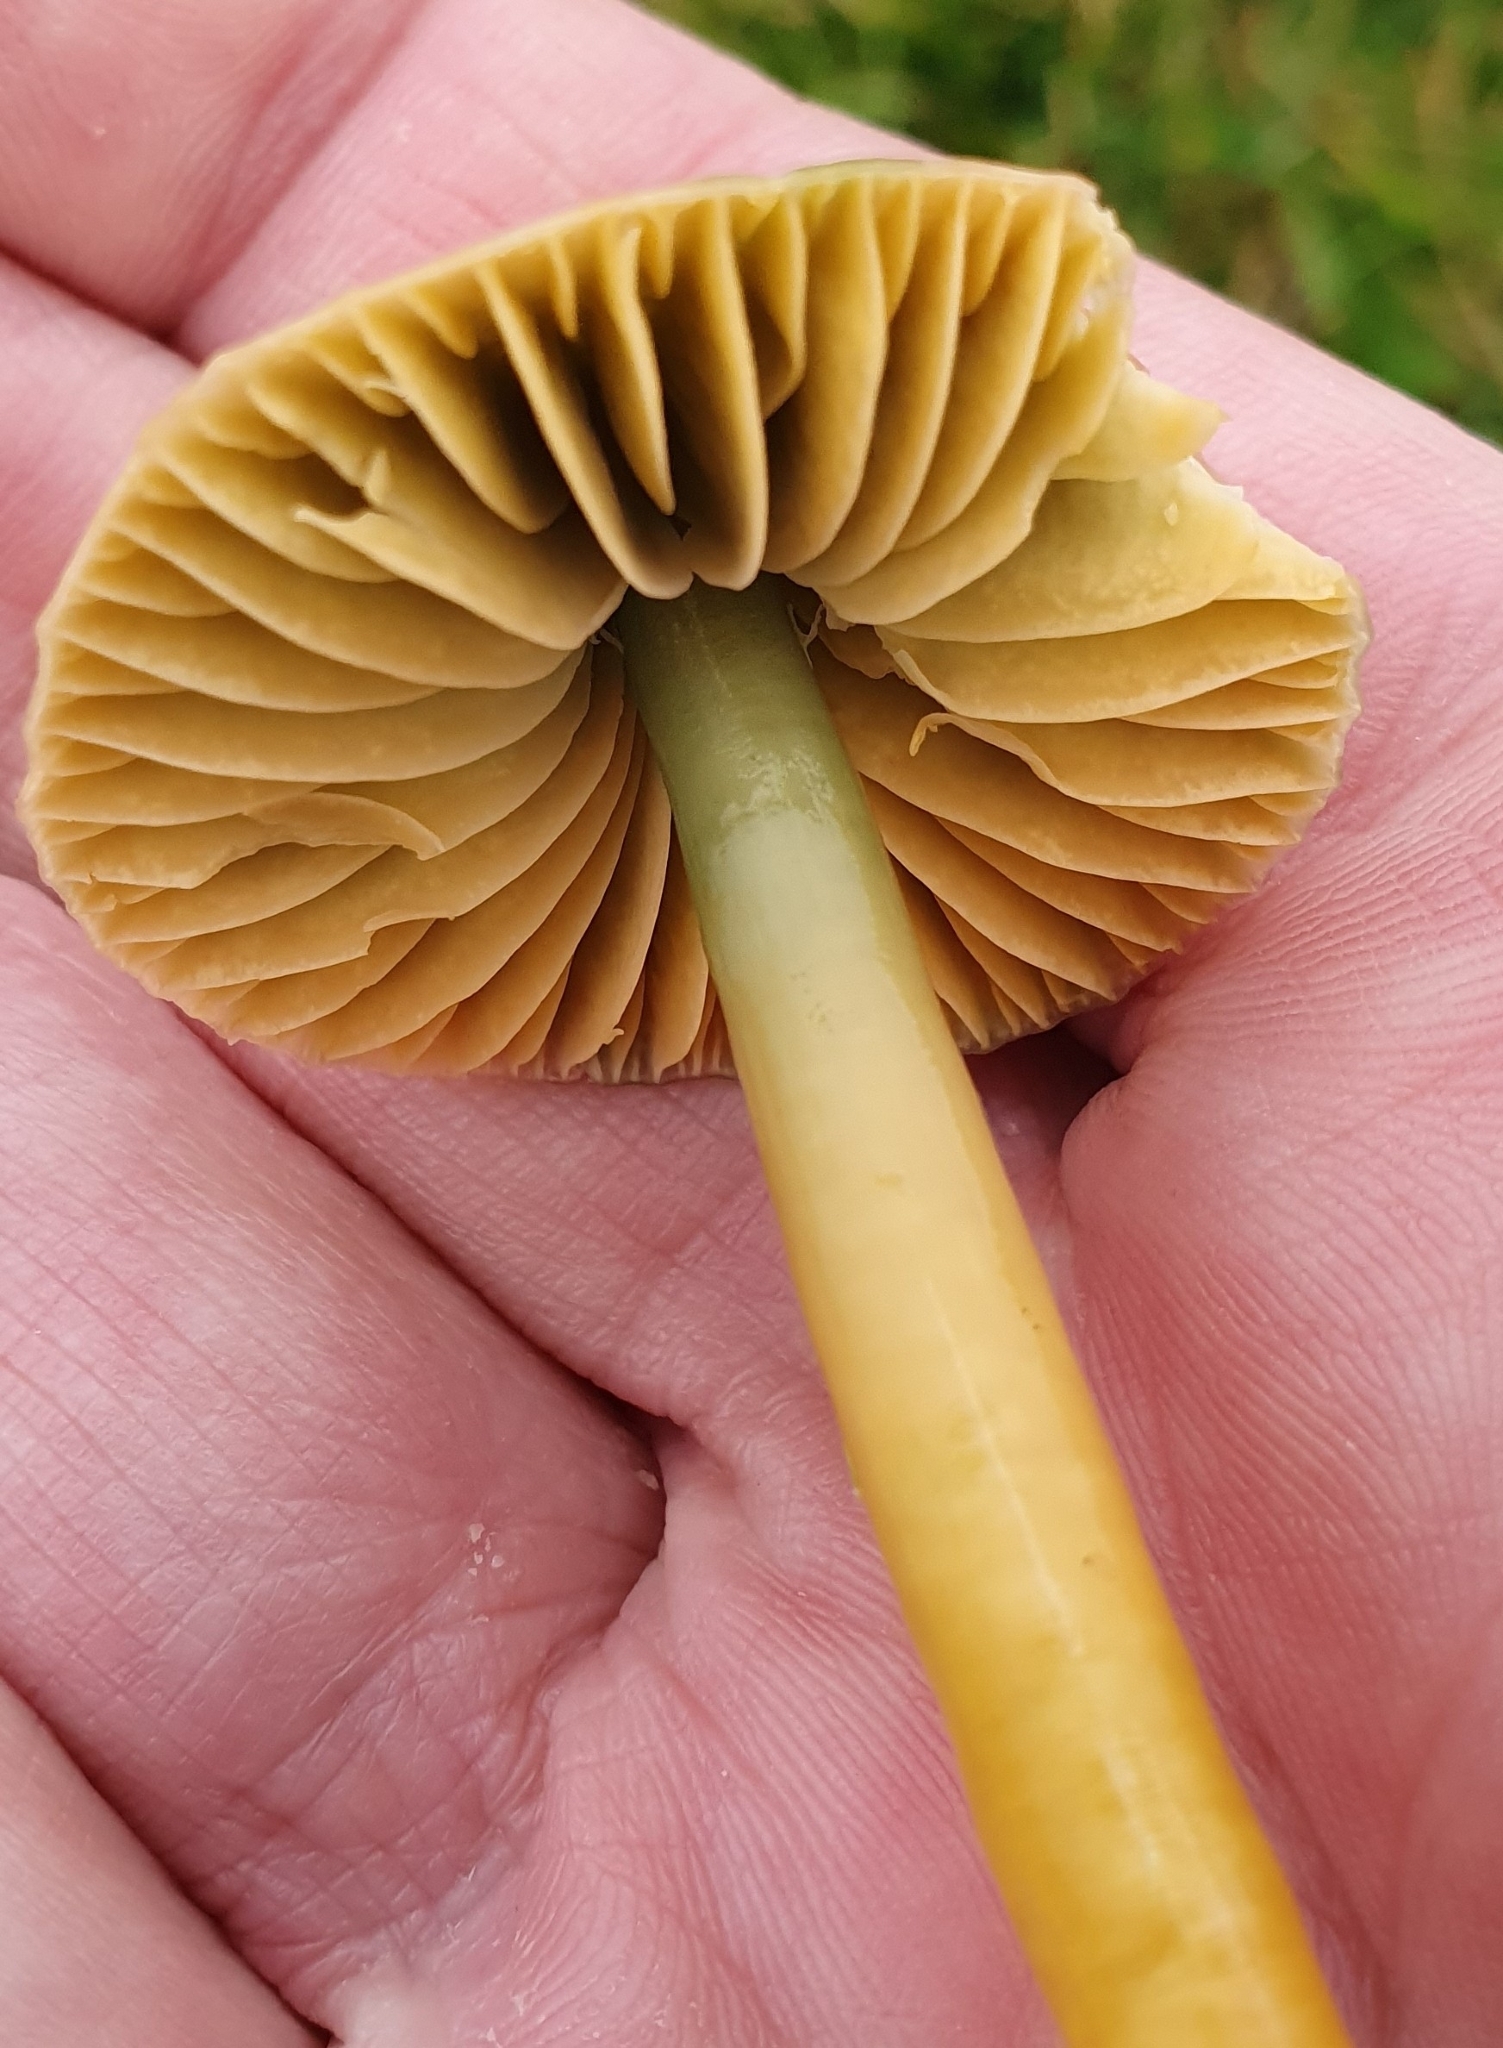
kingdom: Fungi
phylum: Basidiomycota
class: Agaricomycetes
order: Agaricales
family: Hygrophoraceae
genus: Gliophorus
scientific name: Gliophorus psittacinus
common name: Parrot wax-cap
